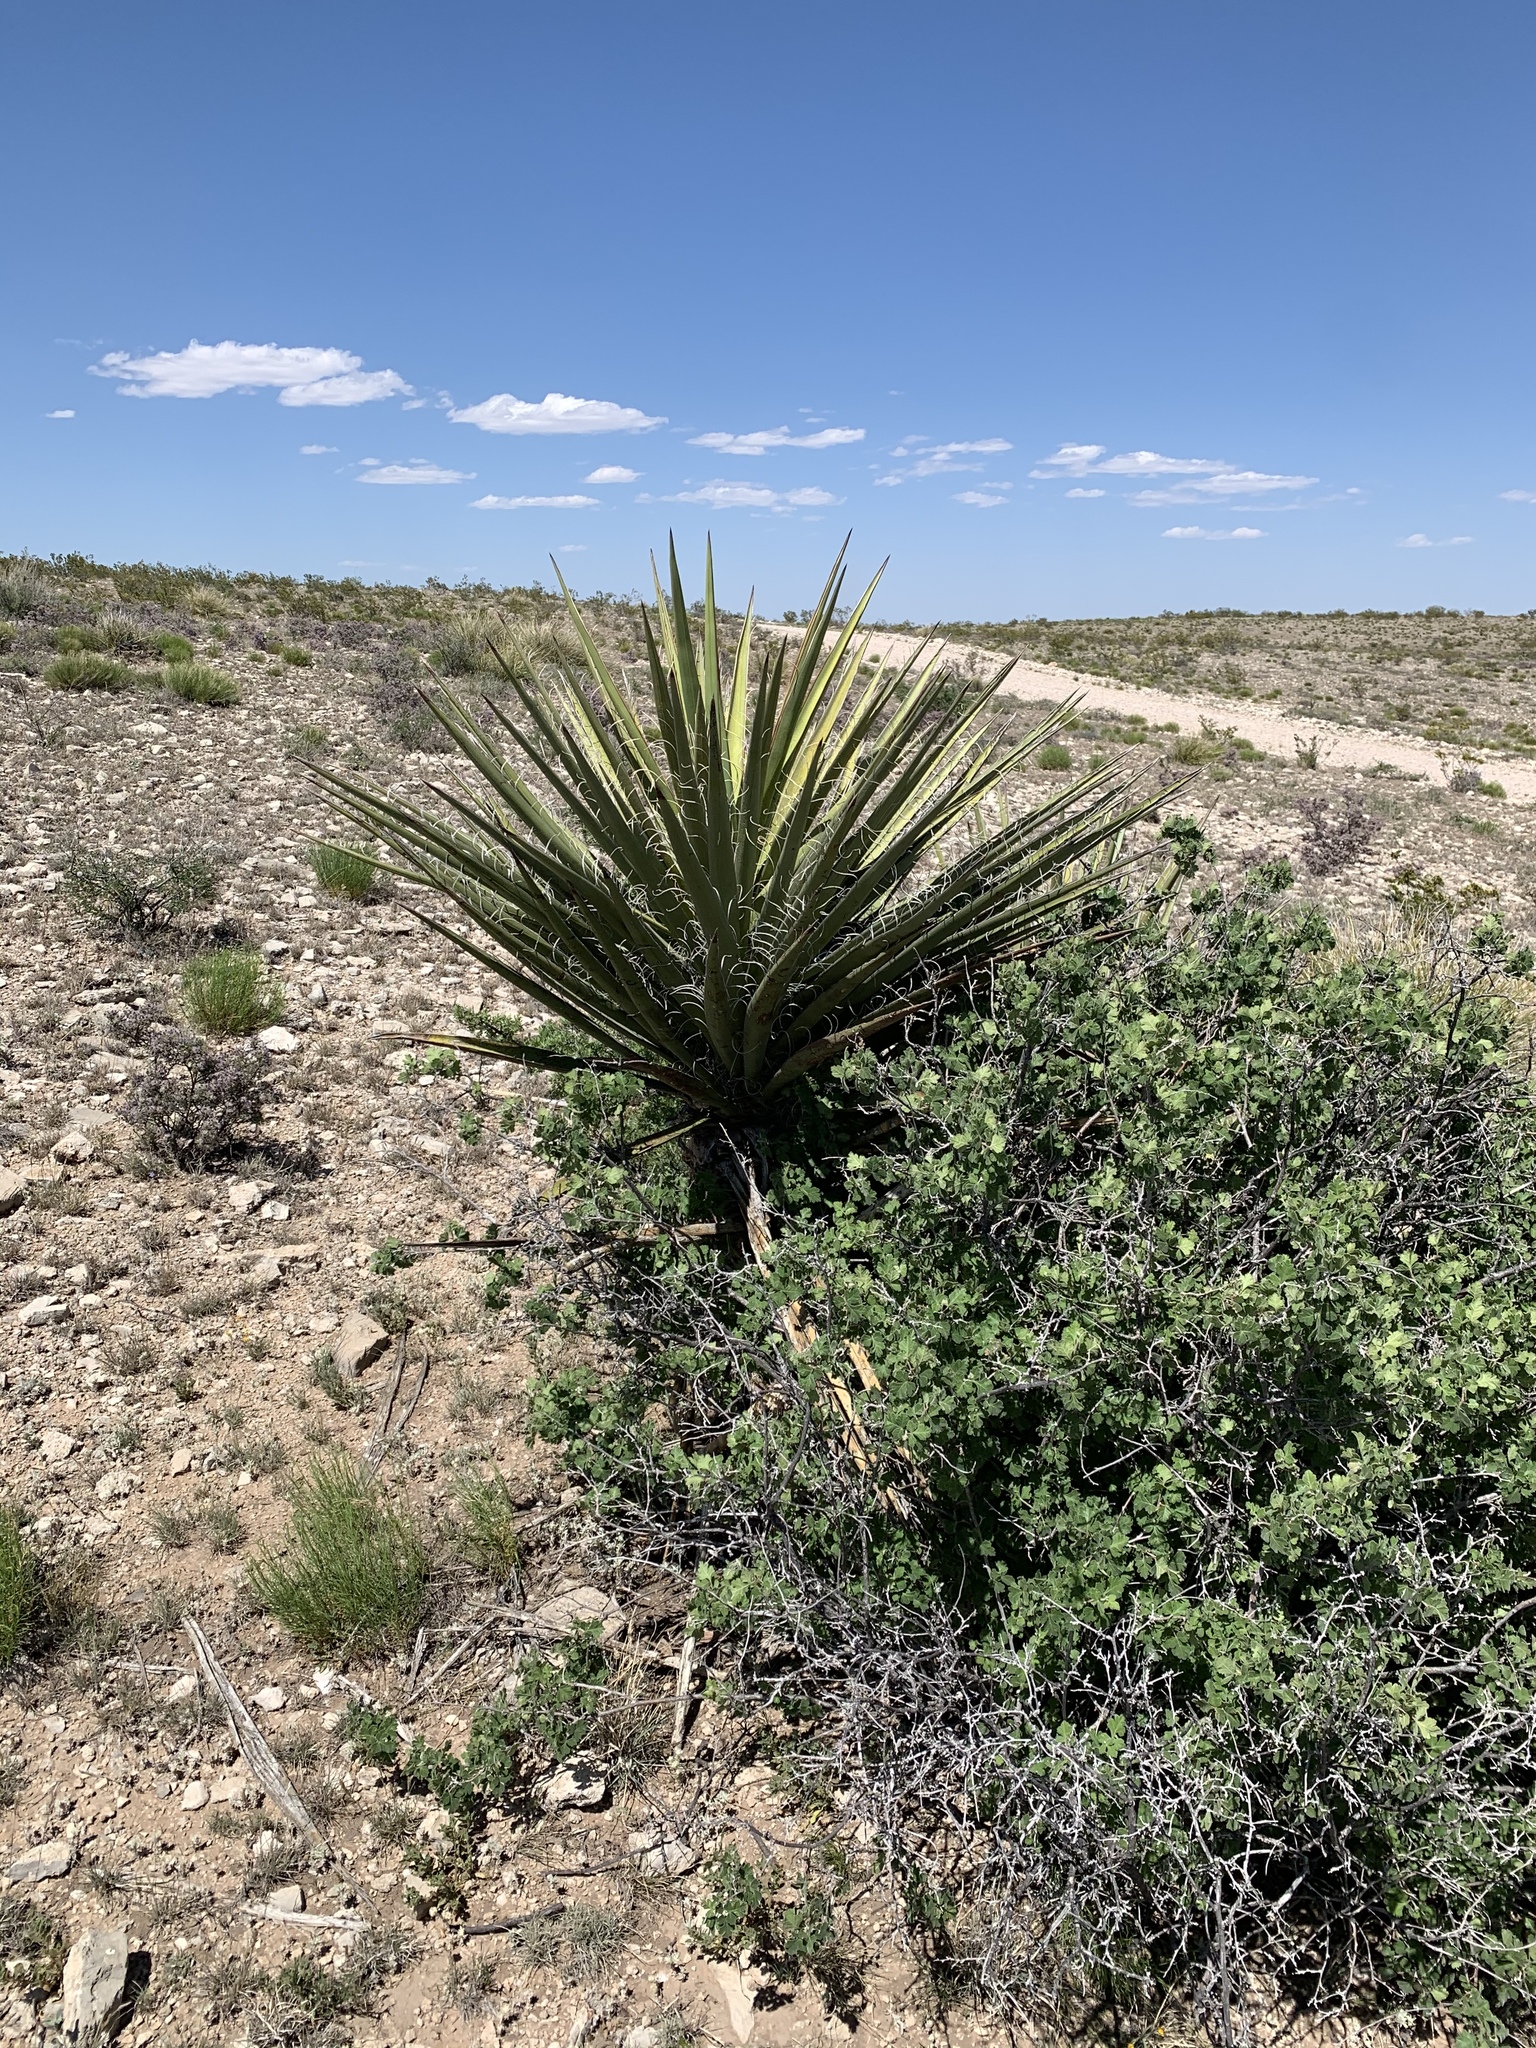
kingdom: Plantae
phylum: Tracheophyta
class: Liliopsida
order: Asparagales
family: Asparagaceae
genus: Yucca
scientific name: Yucca treculiana
